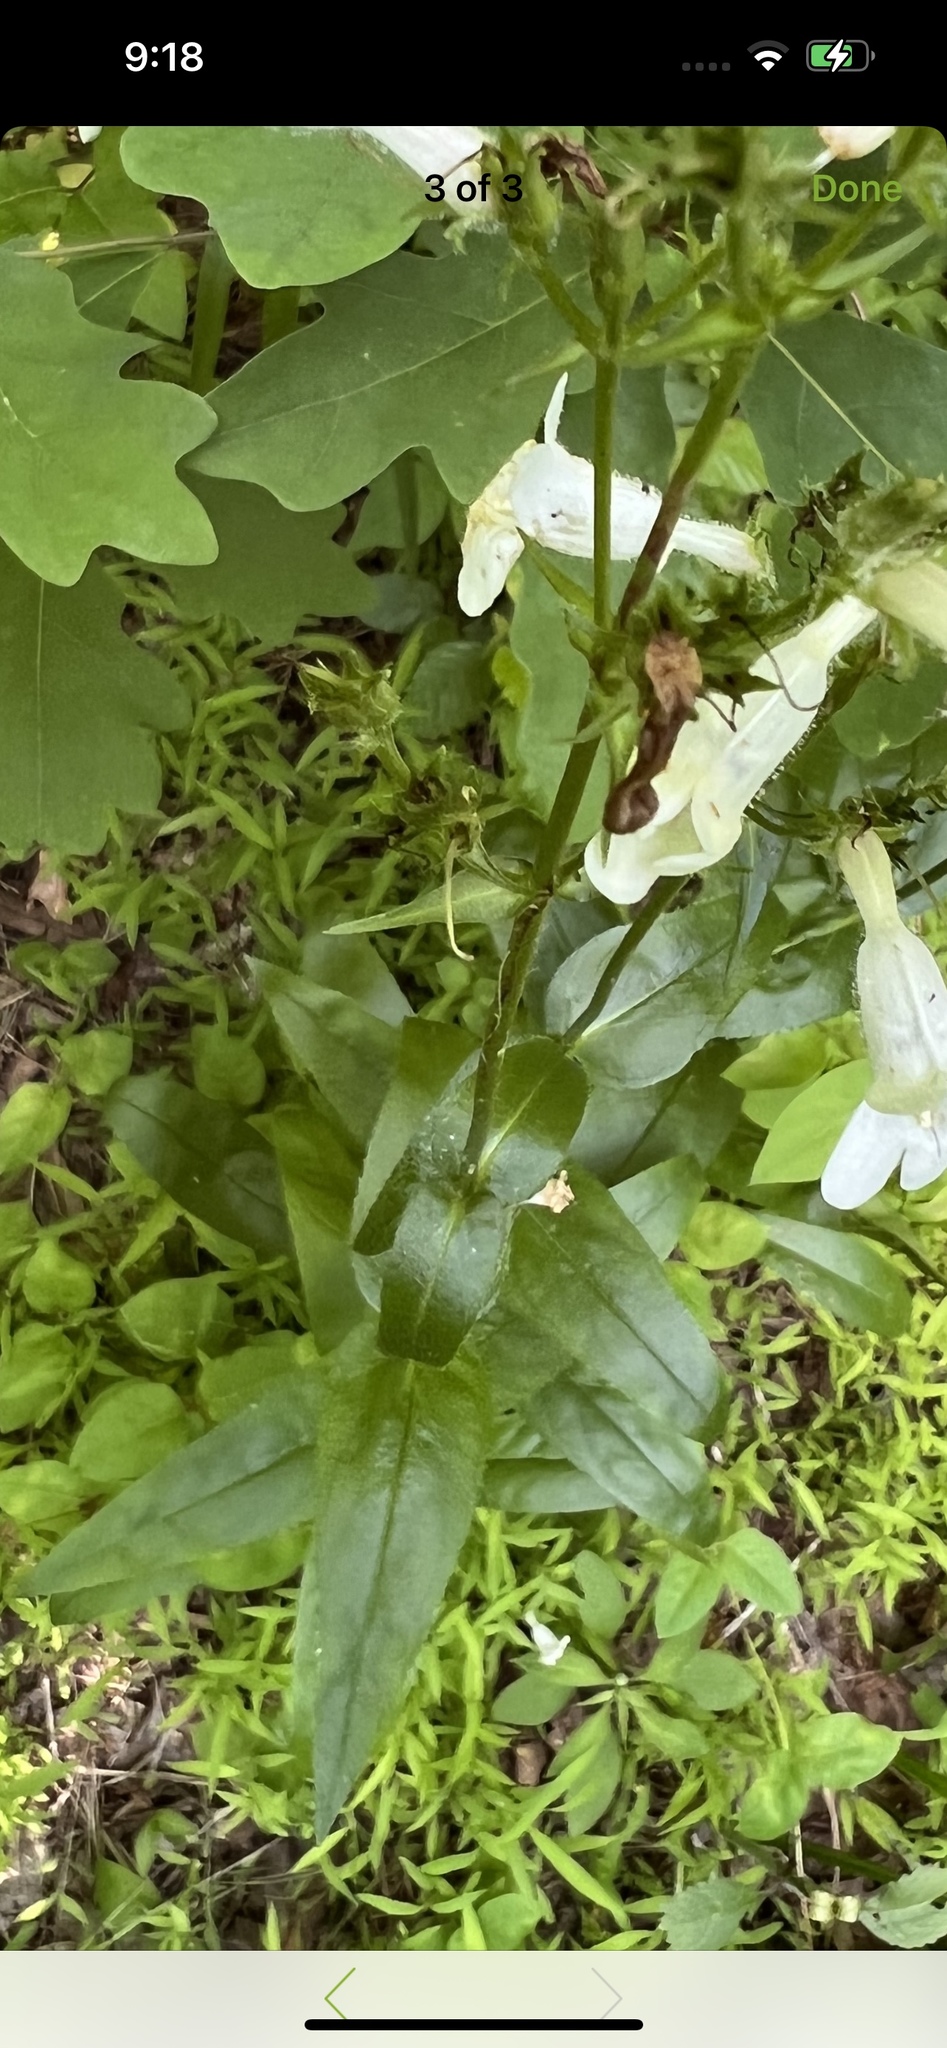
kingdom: Plantae
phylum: Tracheophyta
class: Magnoliopsida
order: Lamiales
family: Plantaginaceae
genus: Penstemon
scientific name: Penstemon digitalis
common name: Foxglove beardtongue
